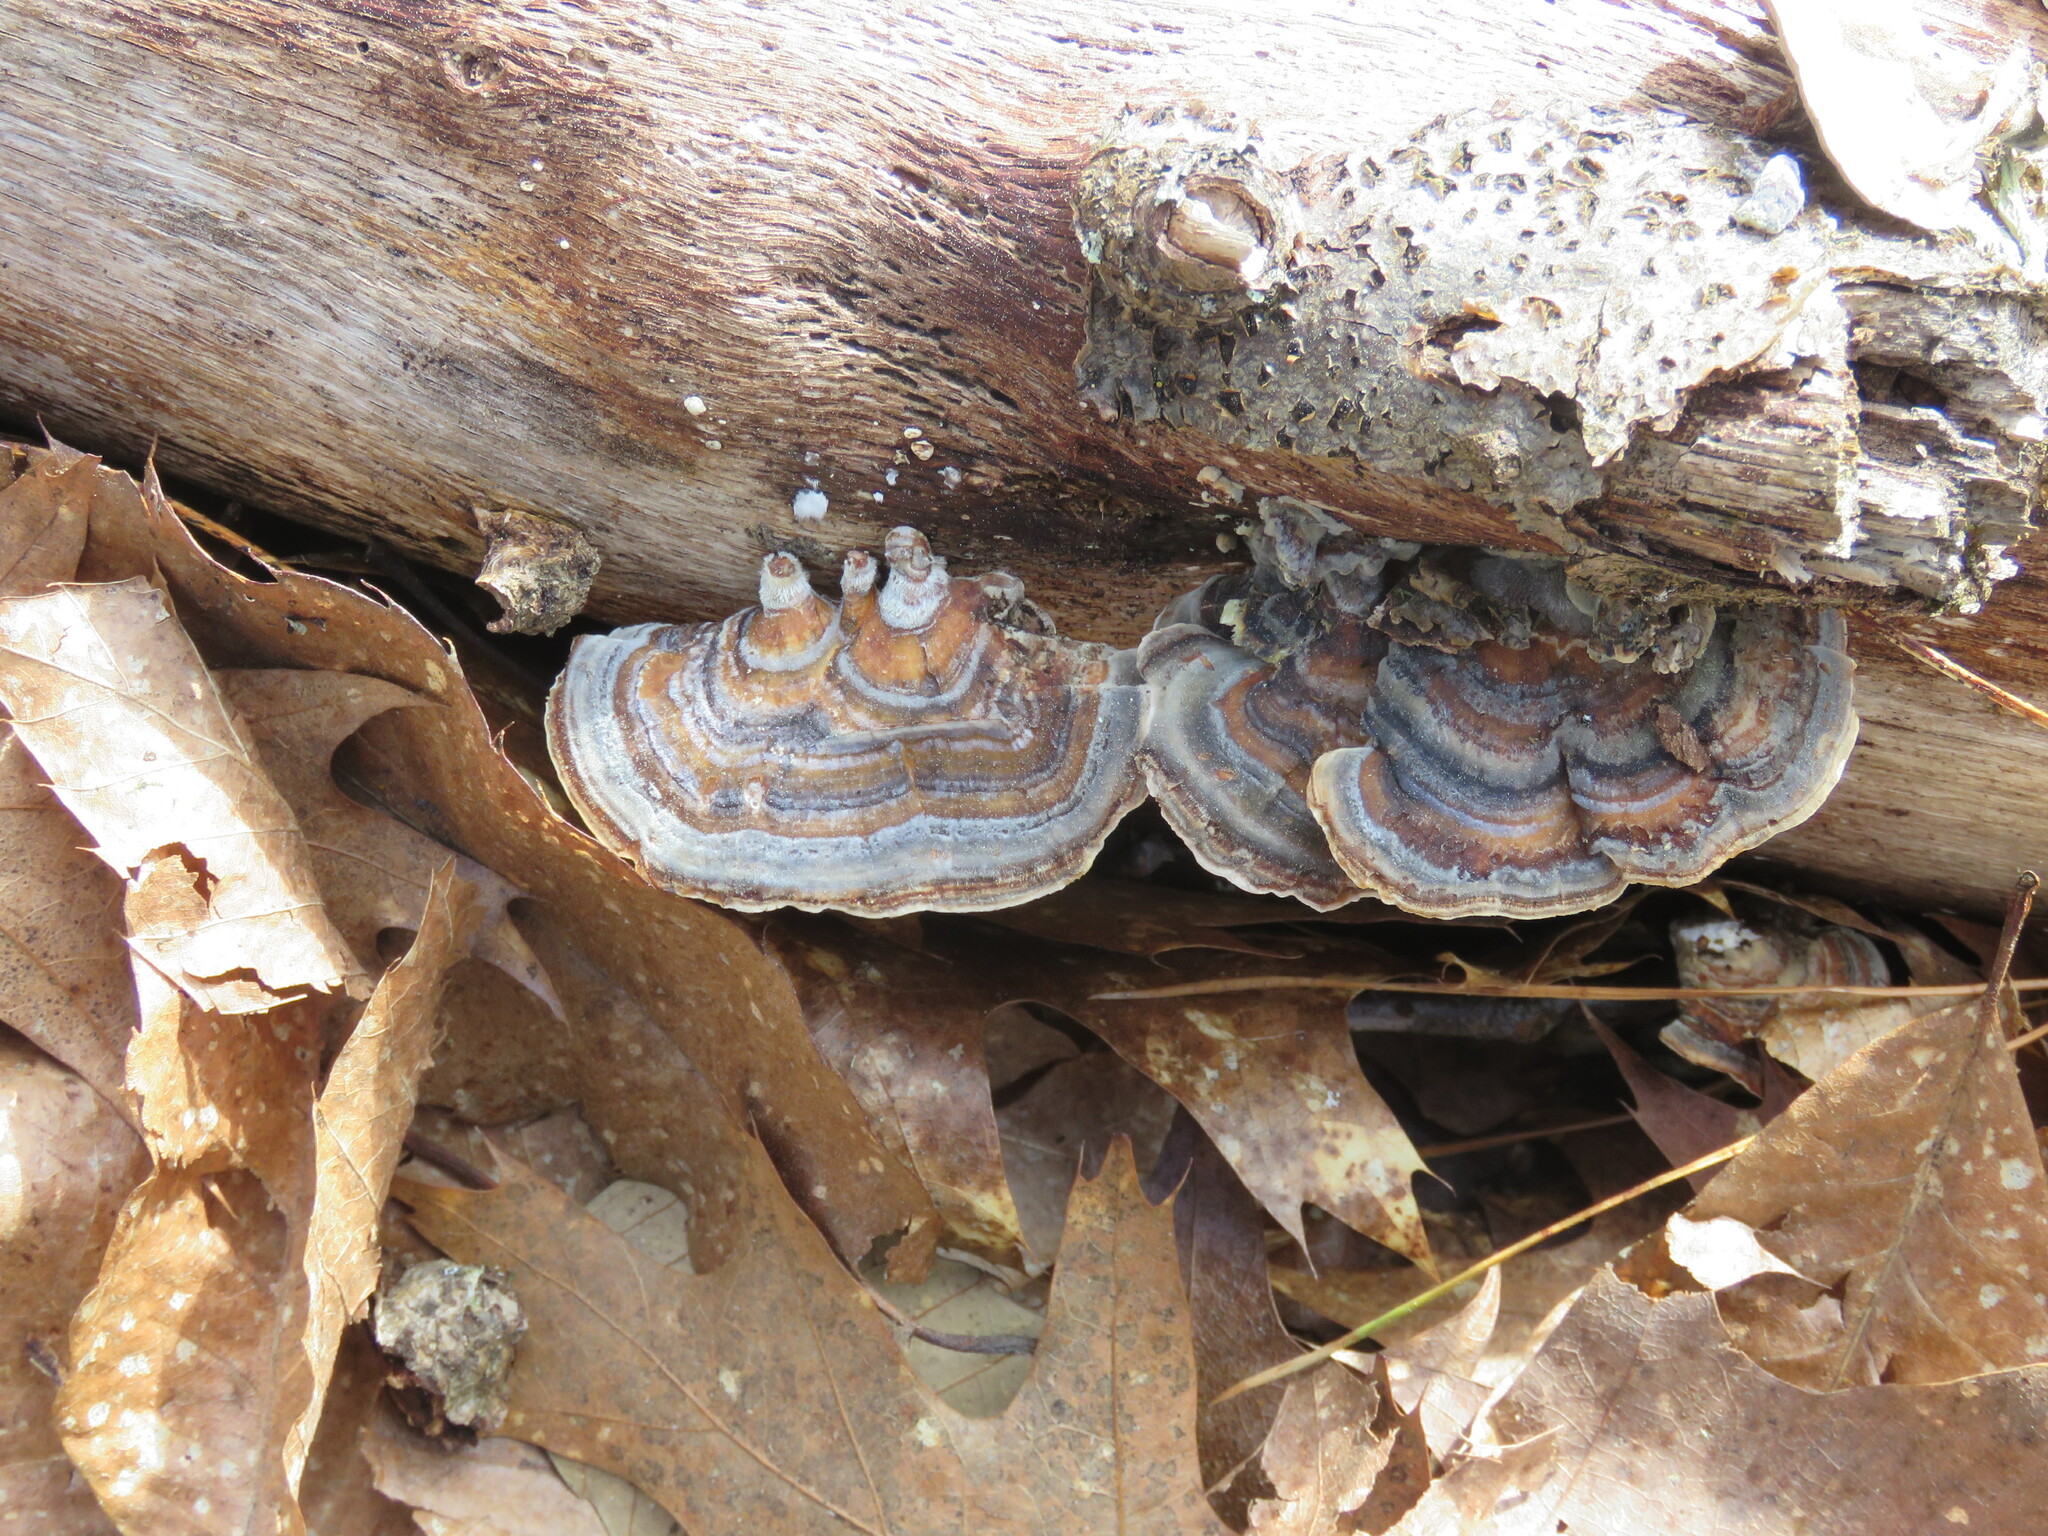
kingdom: Fungi
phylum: Basidiomycota
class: Agaricomycetes
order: Polyporales
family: Polyporaceae
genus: Trametes
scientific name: Trametes versicolor
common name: Turkeytail
